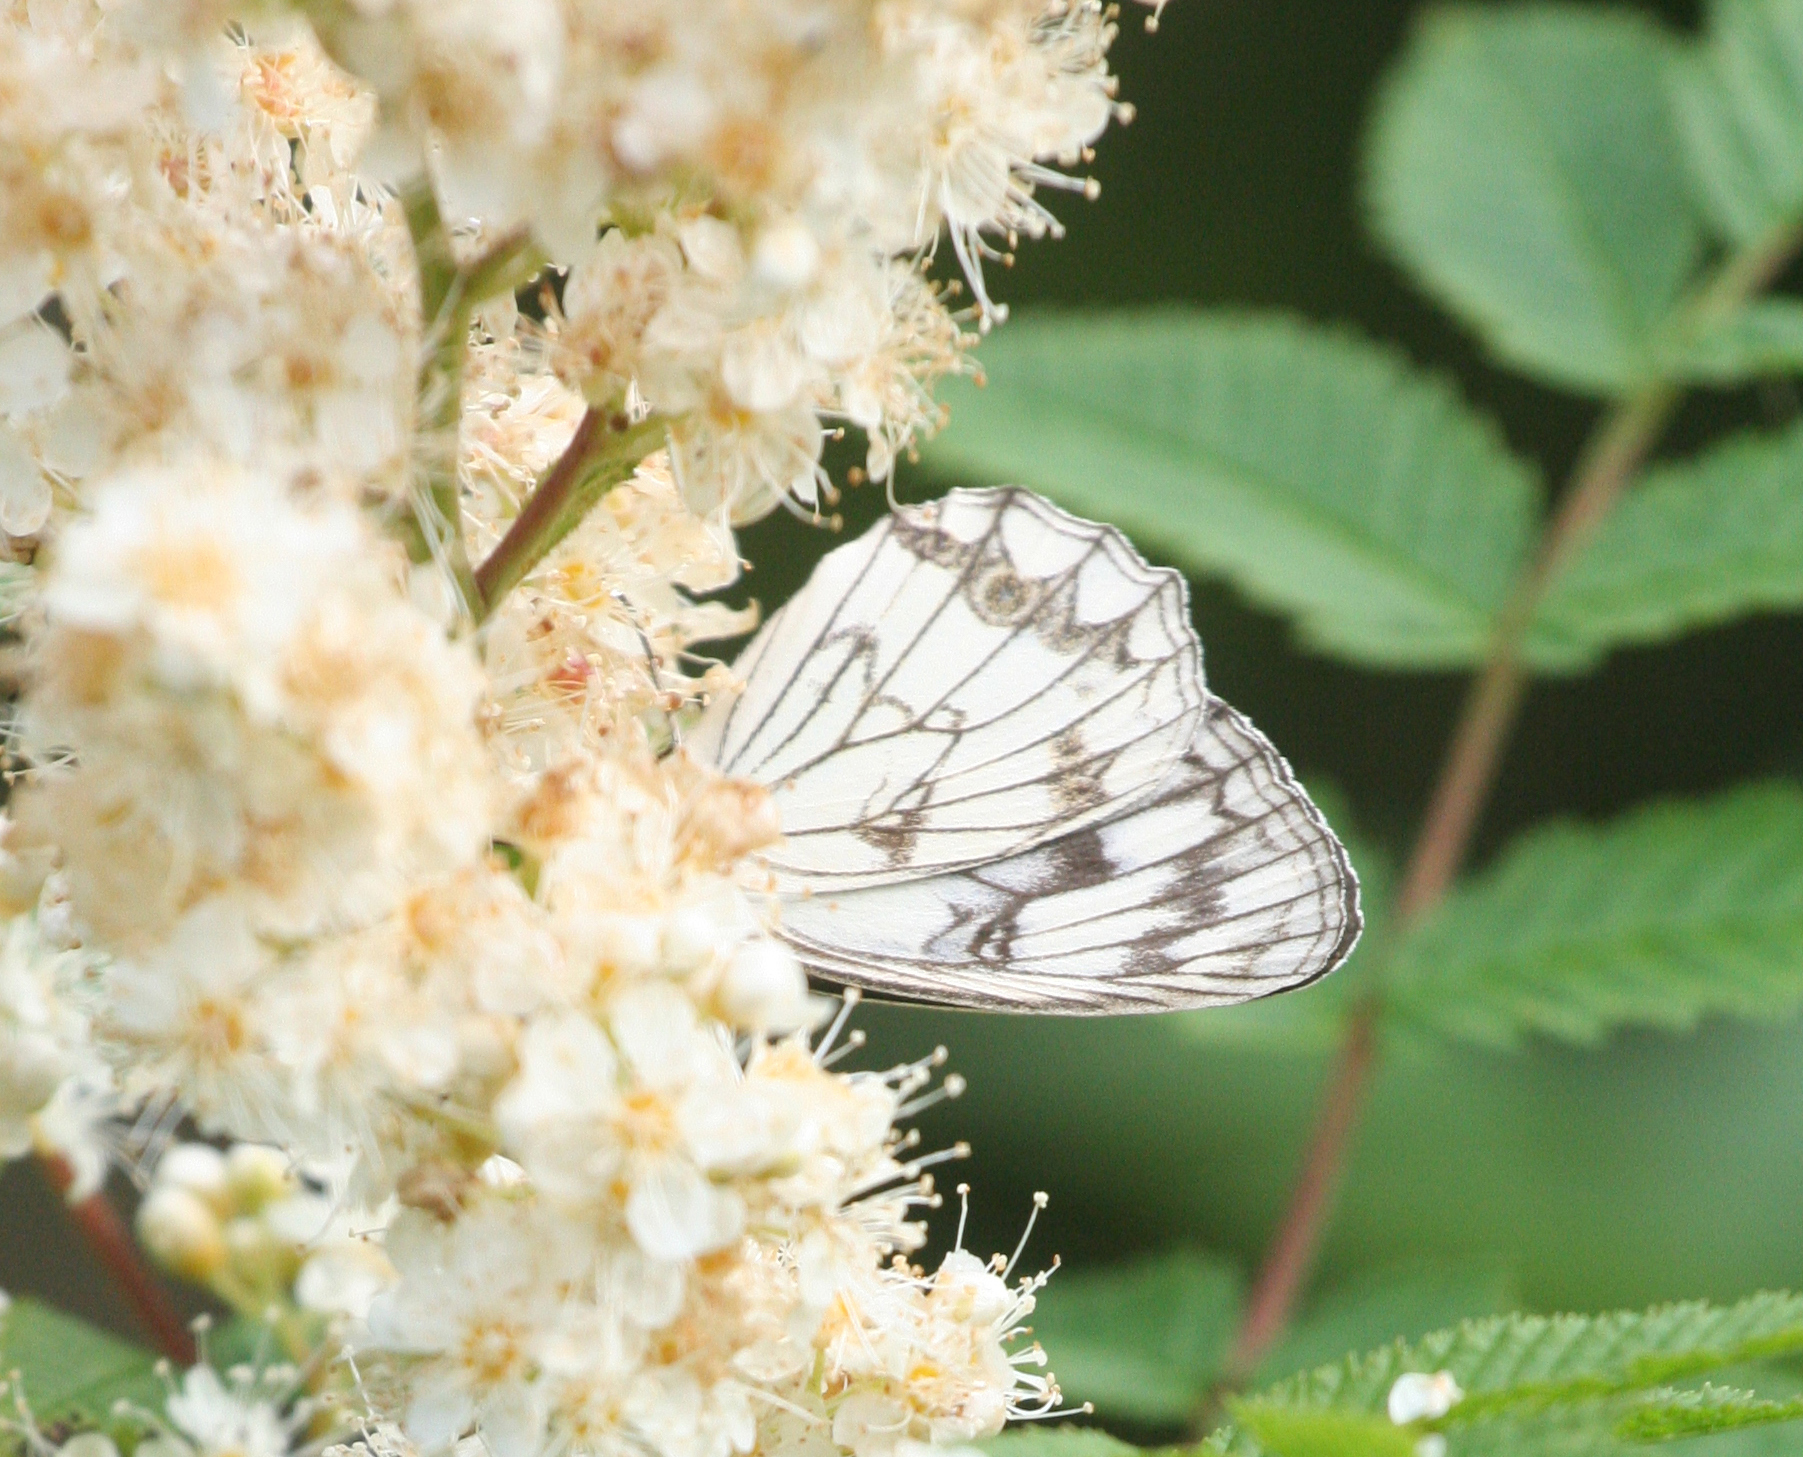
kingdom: Animalia
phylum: Arthropoda
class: Insecta
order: Lepidoptera
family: Nymphalidae
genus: Melanargia
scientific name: Melanargia halimede
